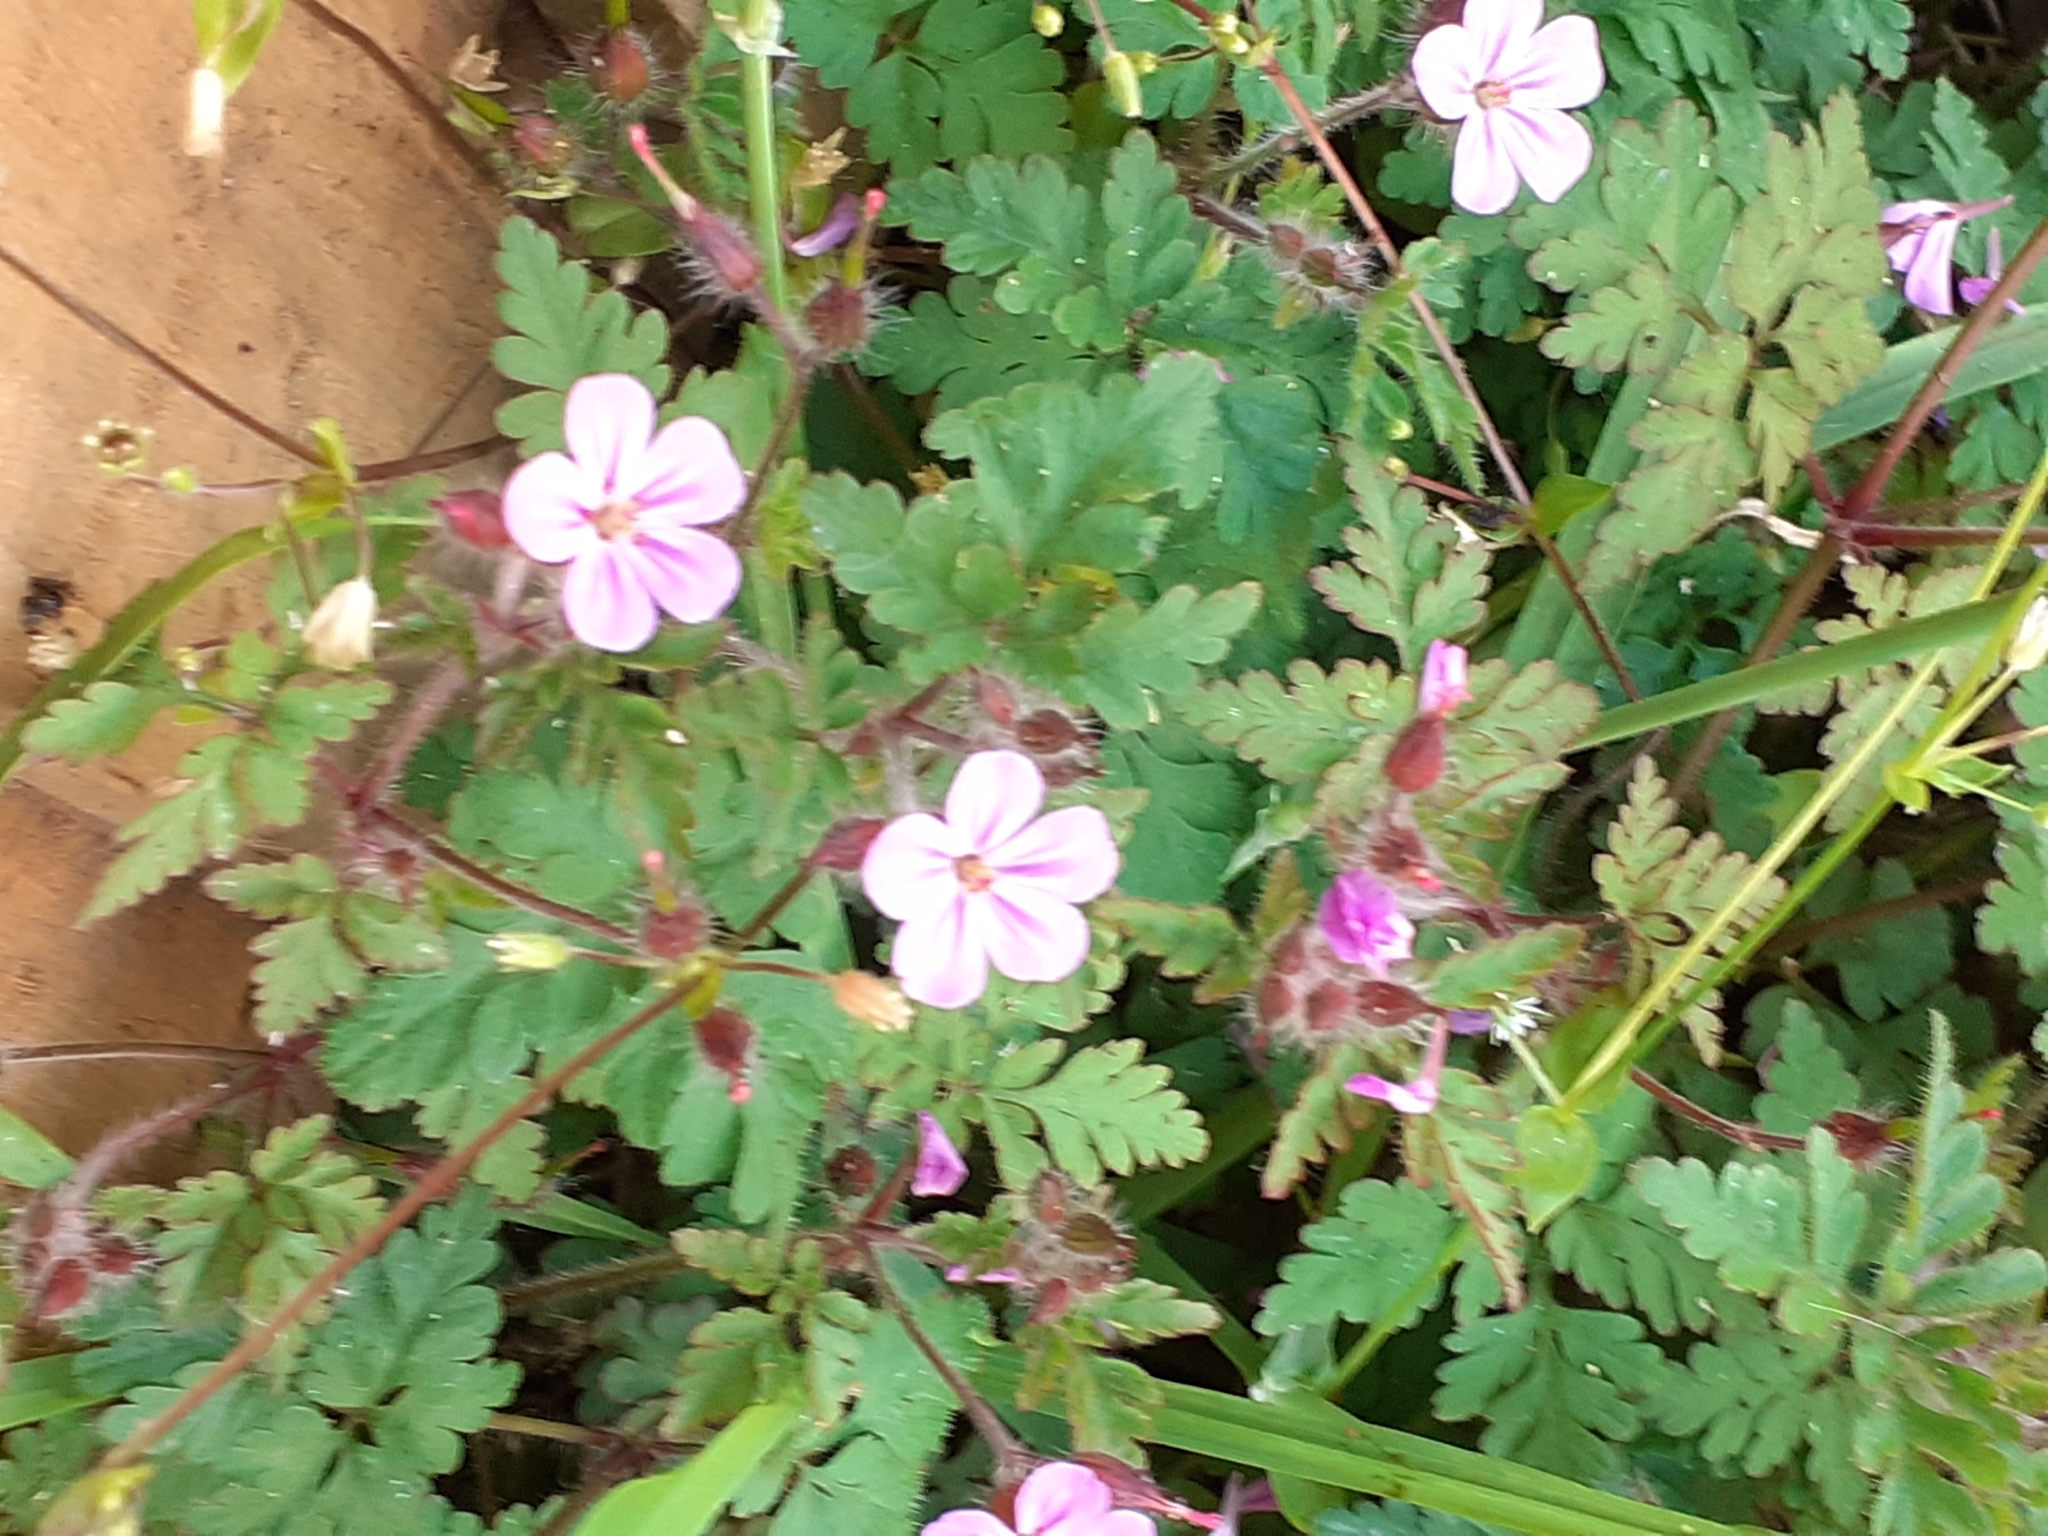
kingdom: Plantae
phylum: Tracheophyta
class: Magnoliopsida
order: Geraniales
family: Geraniaceae
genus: Geranium
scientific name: Geranium robertianum
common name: Herb-robert
